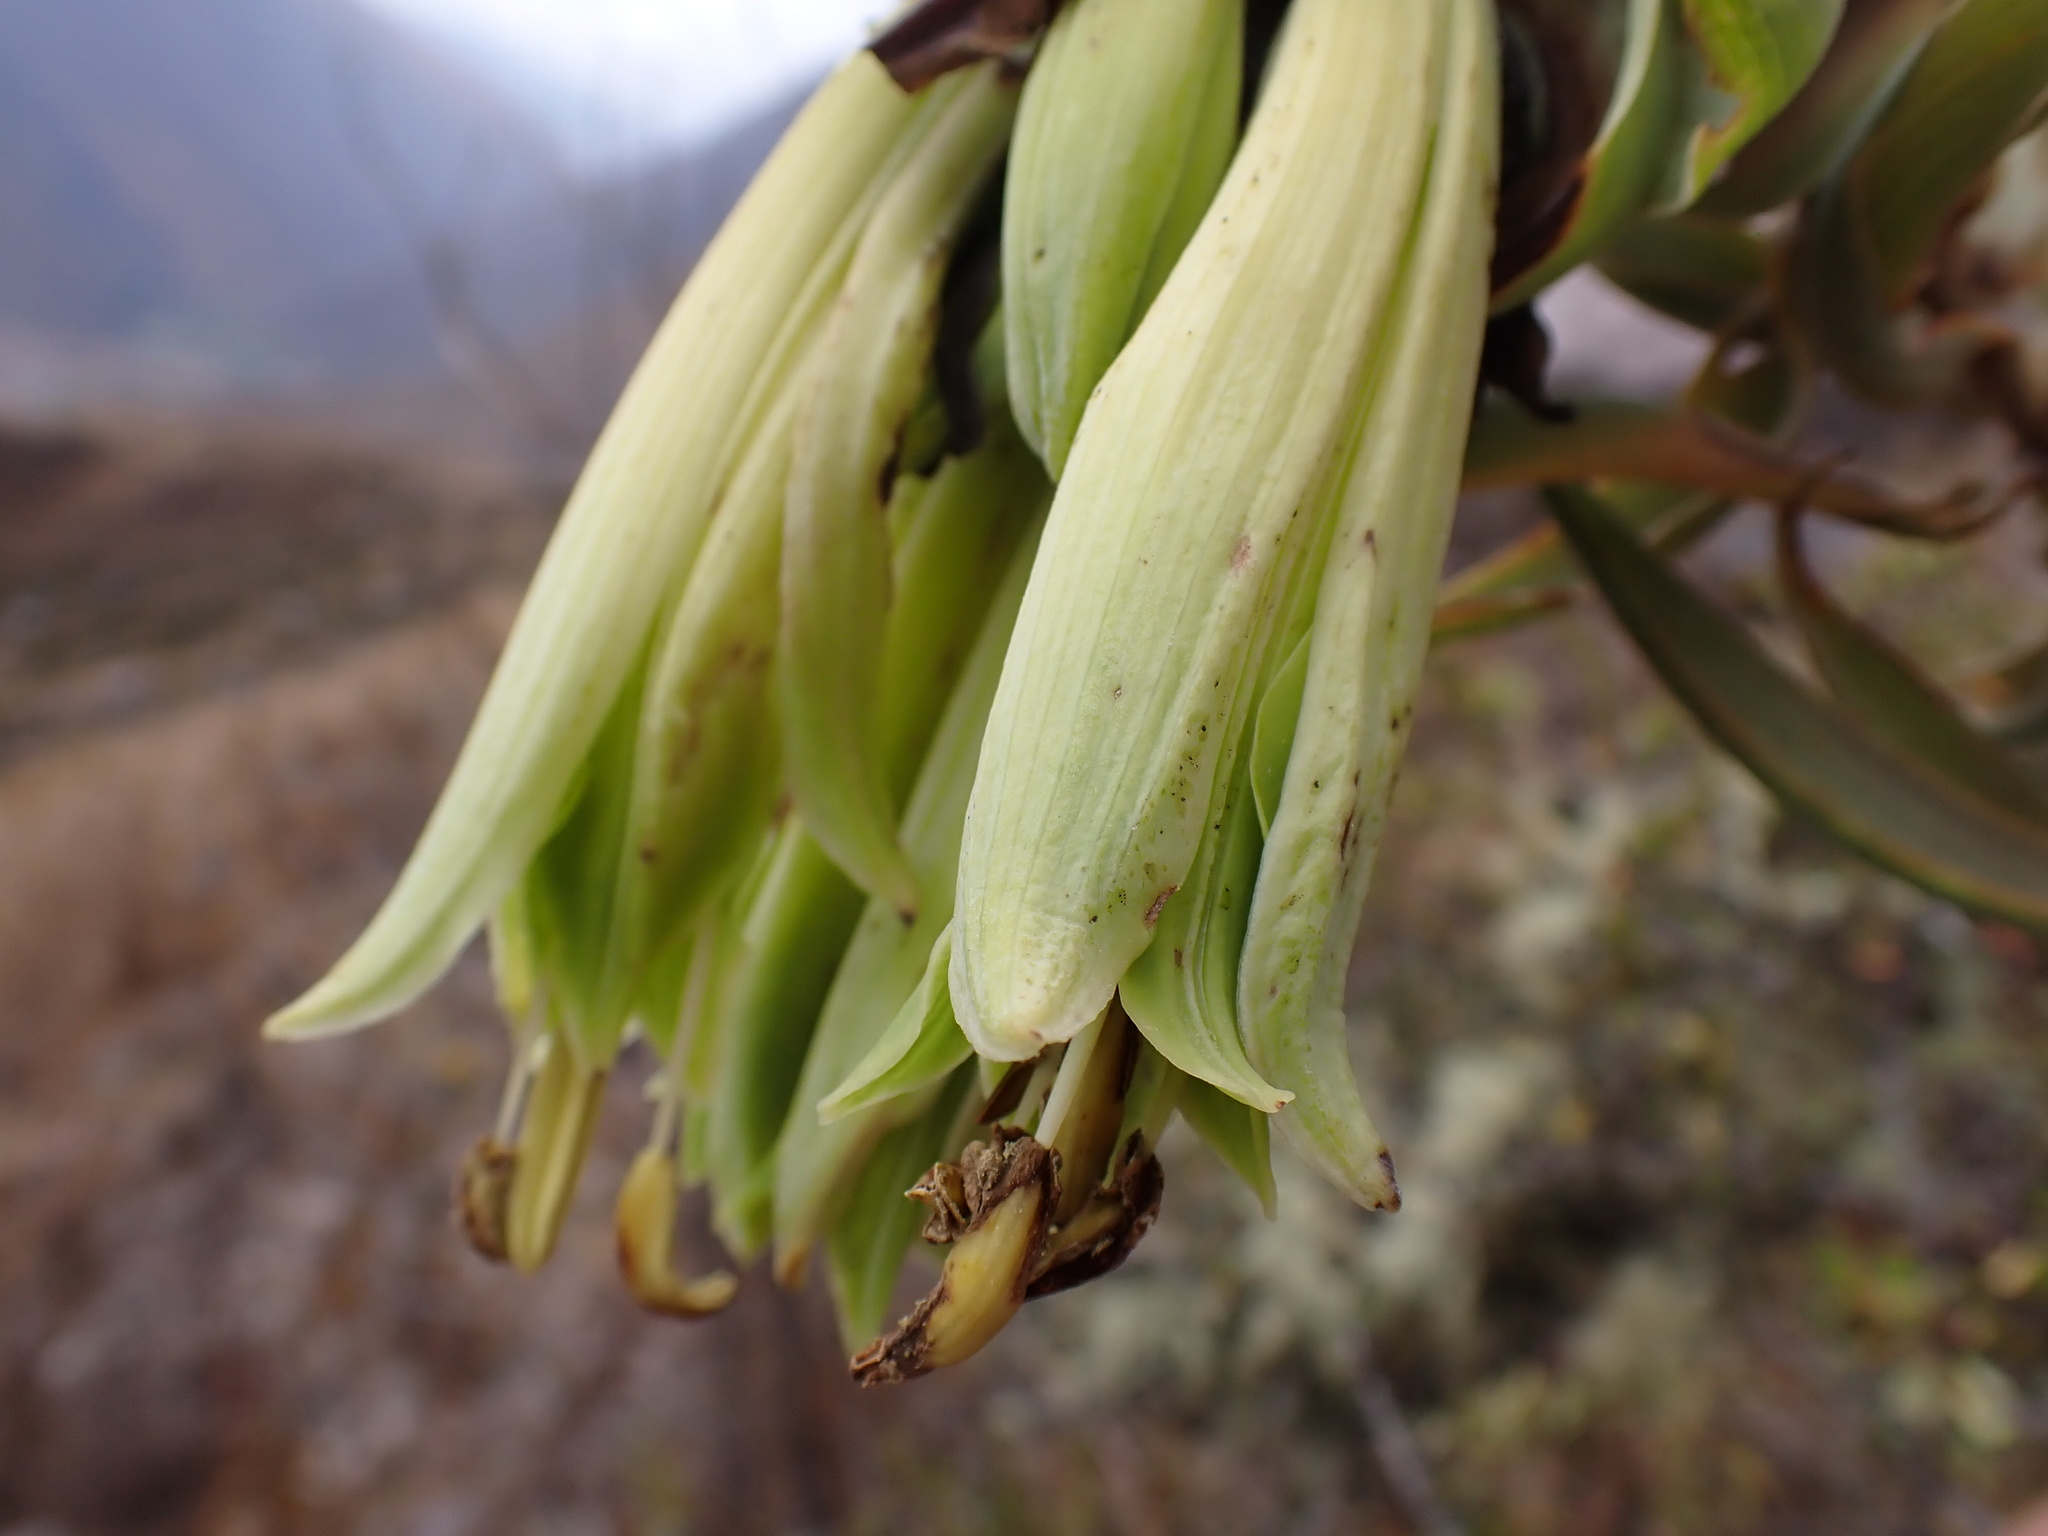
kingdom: Plantae
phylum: Tracheophyta
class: Liliopsida
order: Liliales
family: Alstroemeriaceae
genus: Bomarea
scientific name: Bomarea involucrosa
